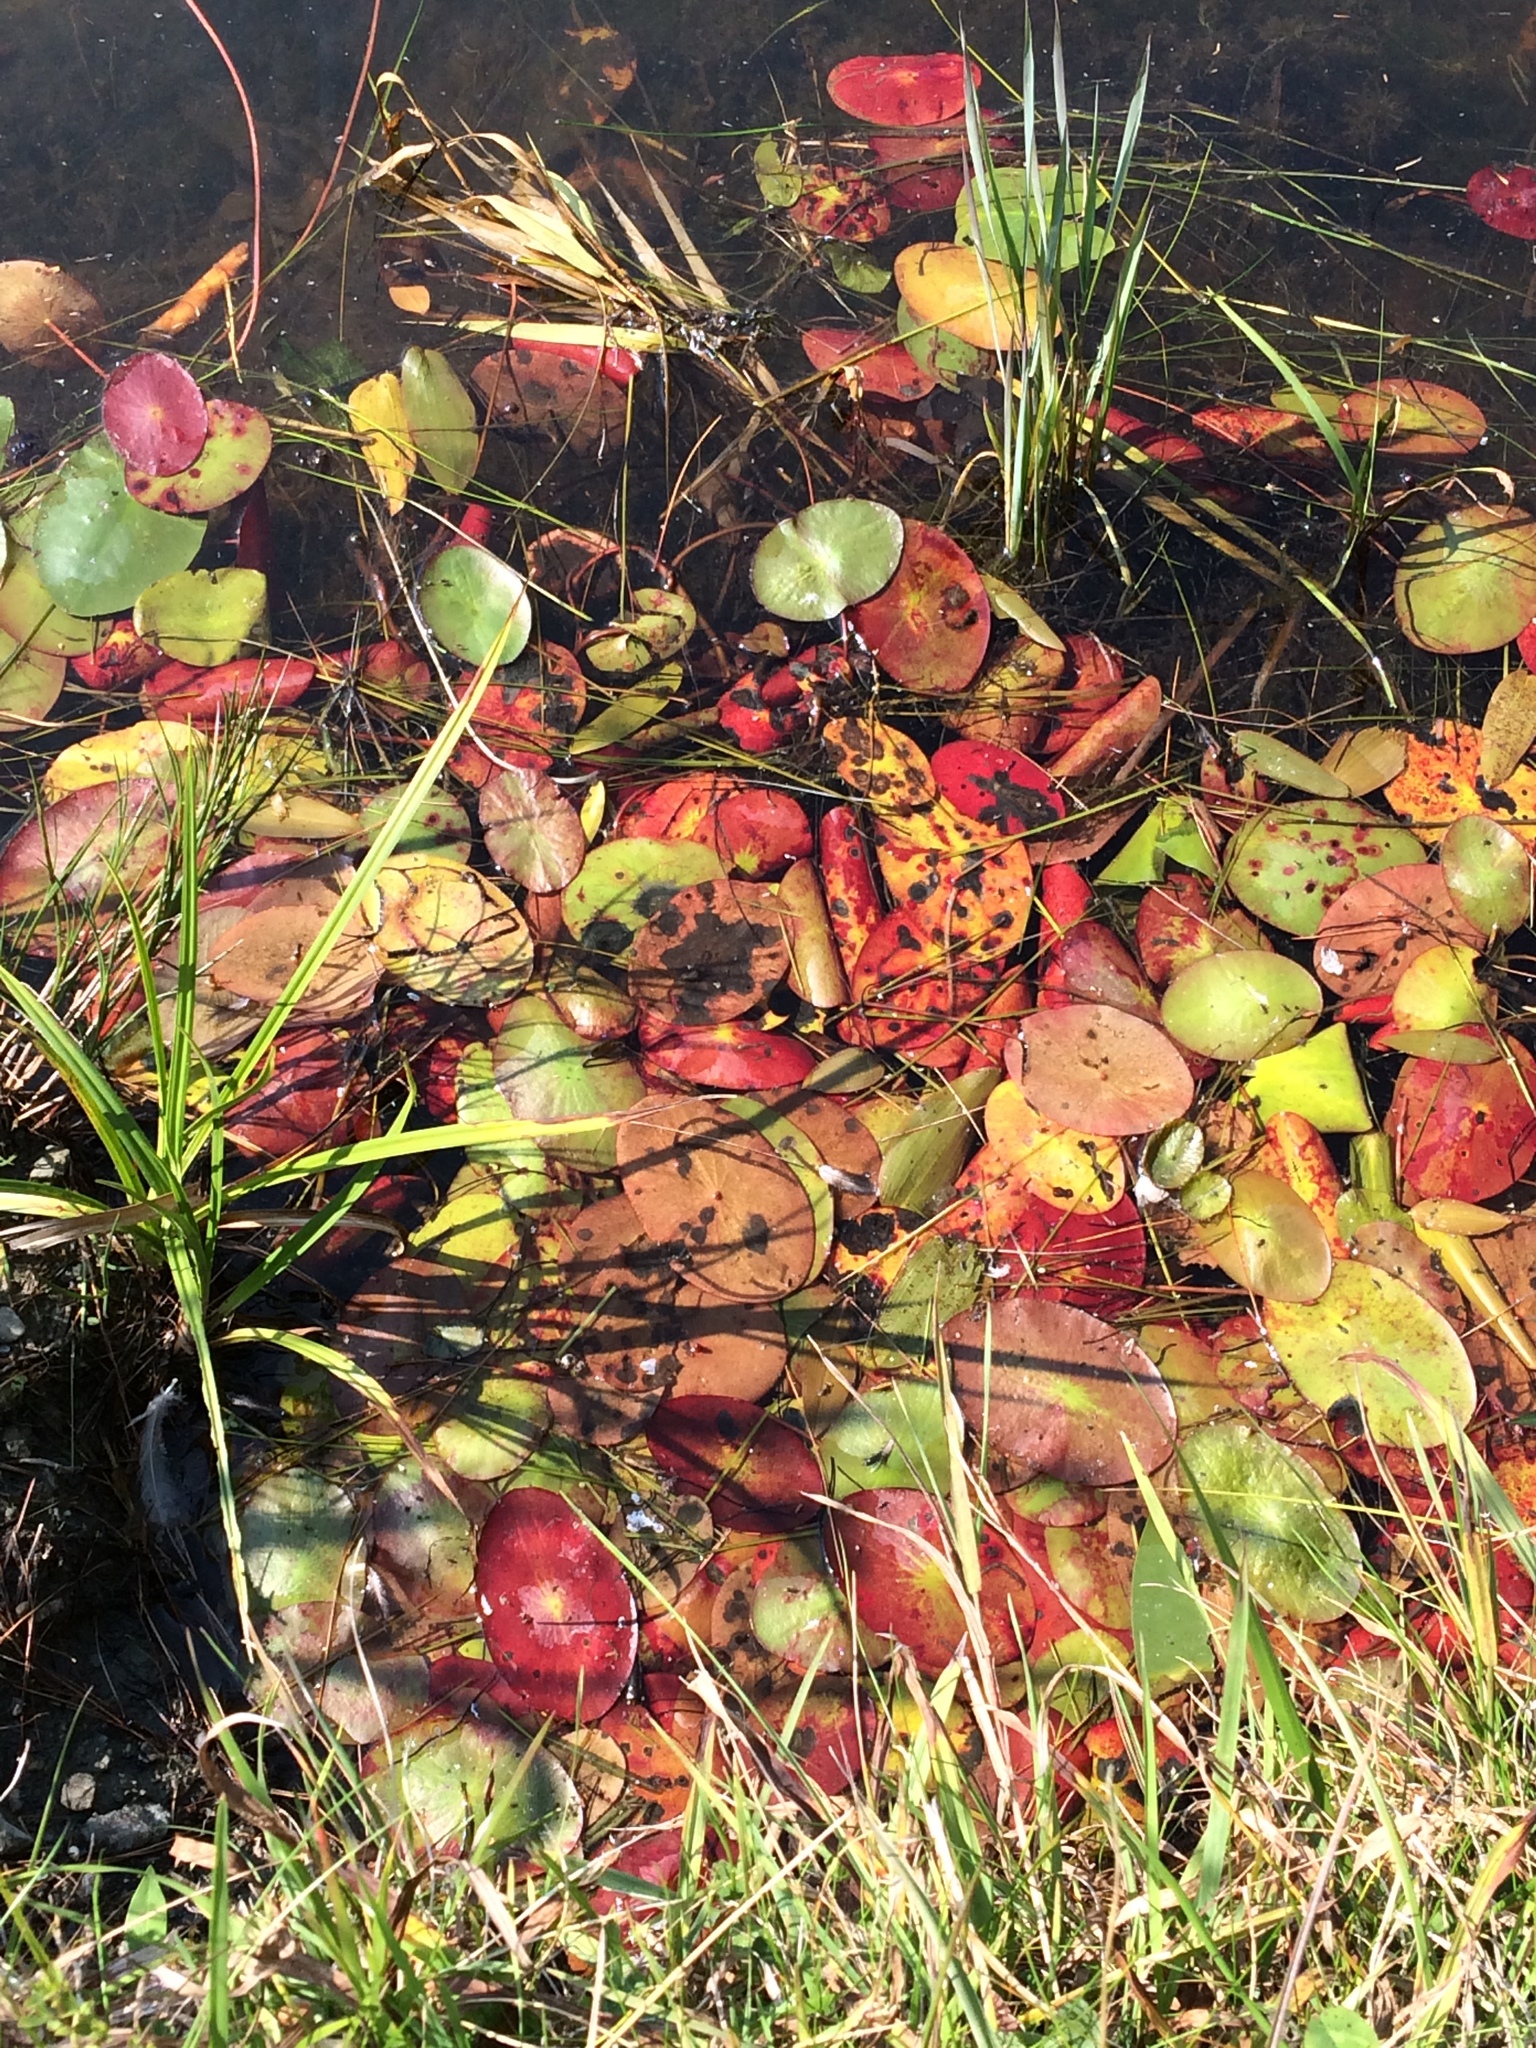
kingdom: Plantae
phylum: Tracheophyta
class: Magnoliopsida
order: Nymphaeales
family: Cabombaceae
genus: Brasenia
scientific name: Brasenia schreberi
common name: Water-shield
